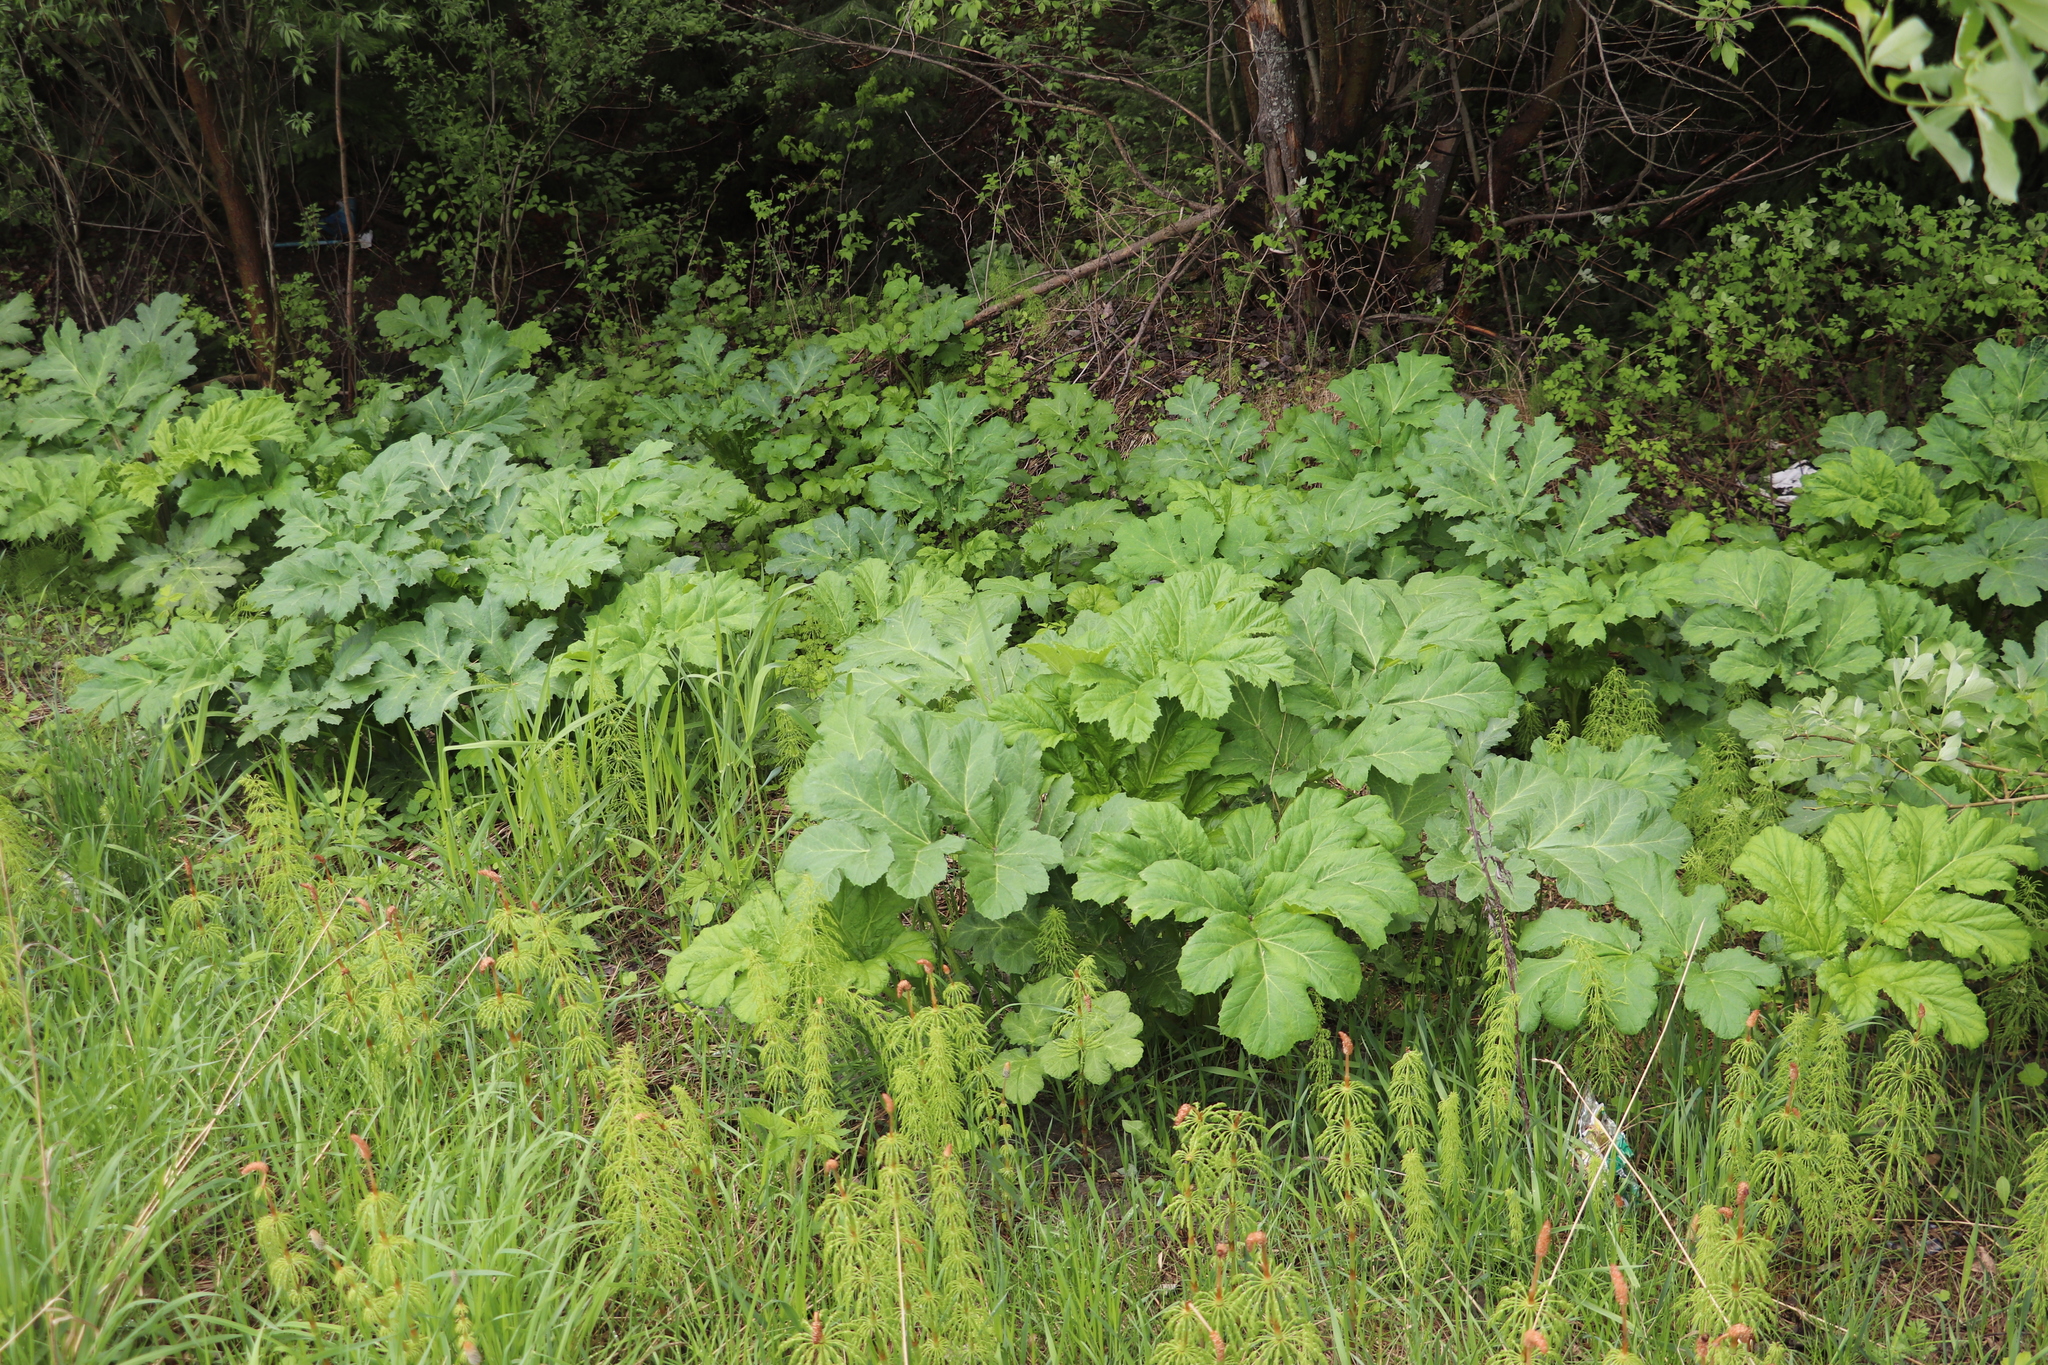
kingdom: Plantae
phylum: Tracheophyta
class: Magnoliopsida
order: Apiales
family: Apiaceae
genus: Heracleum
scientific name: Heracleum sosnowskyi
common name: Sosnowsky's hogweed
